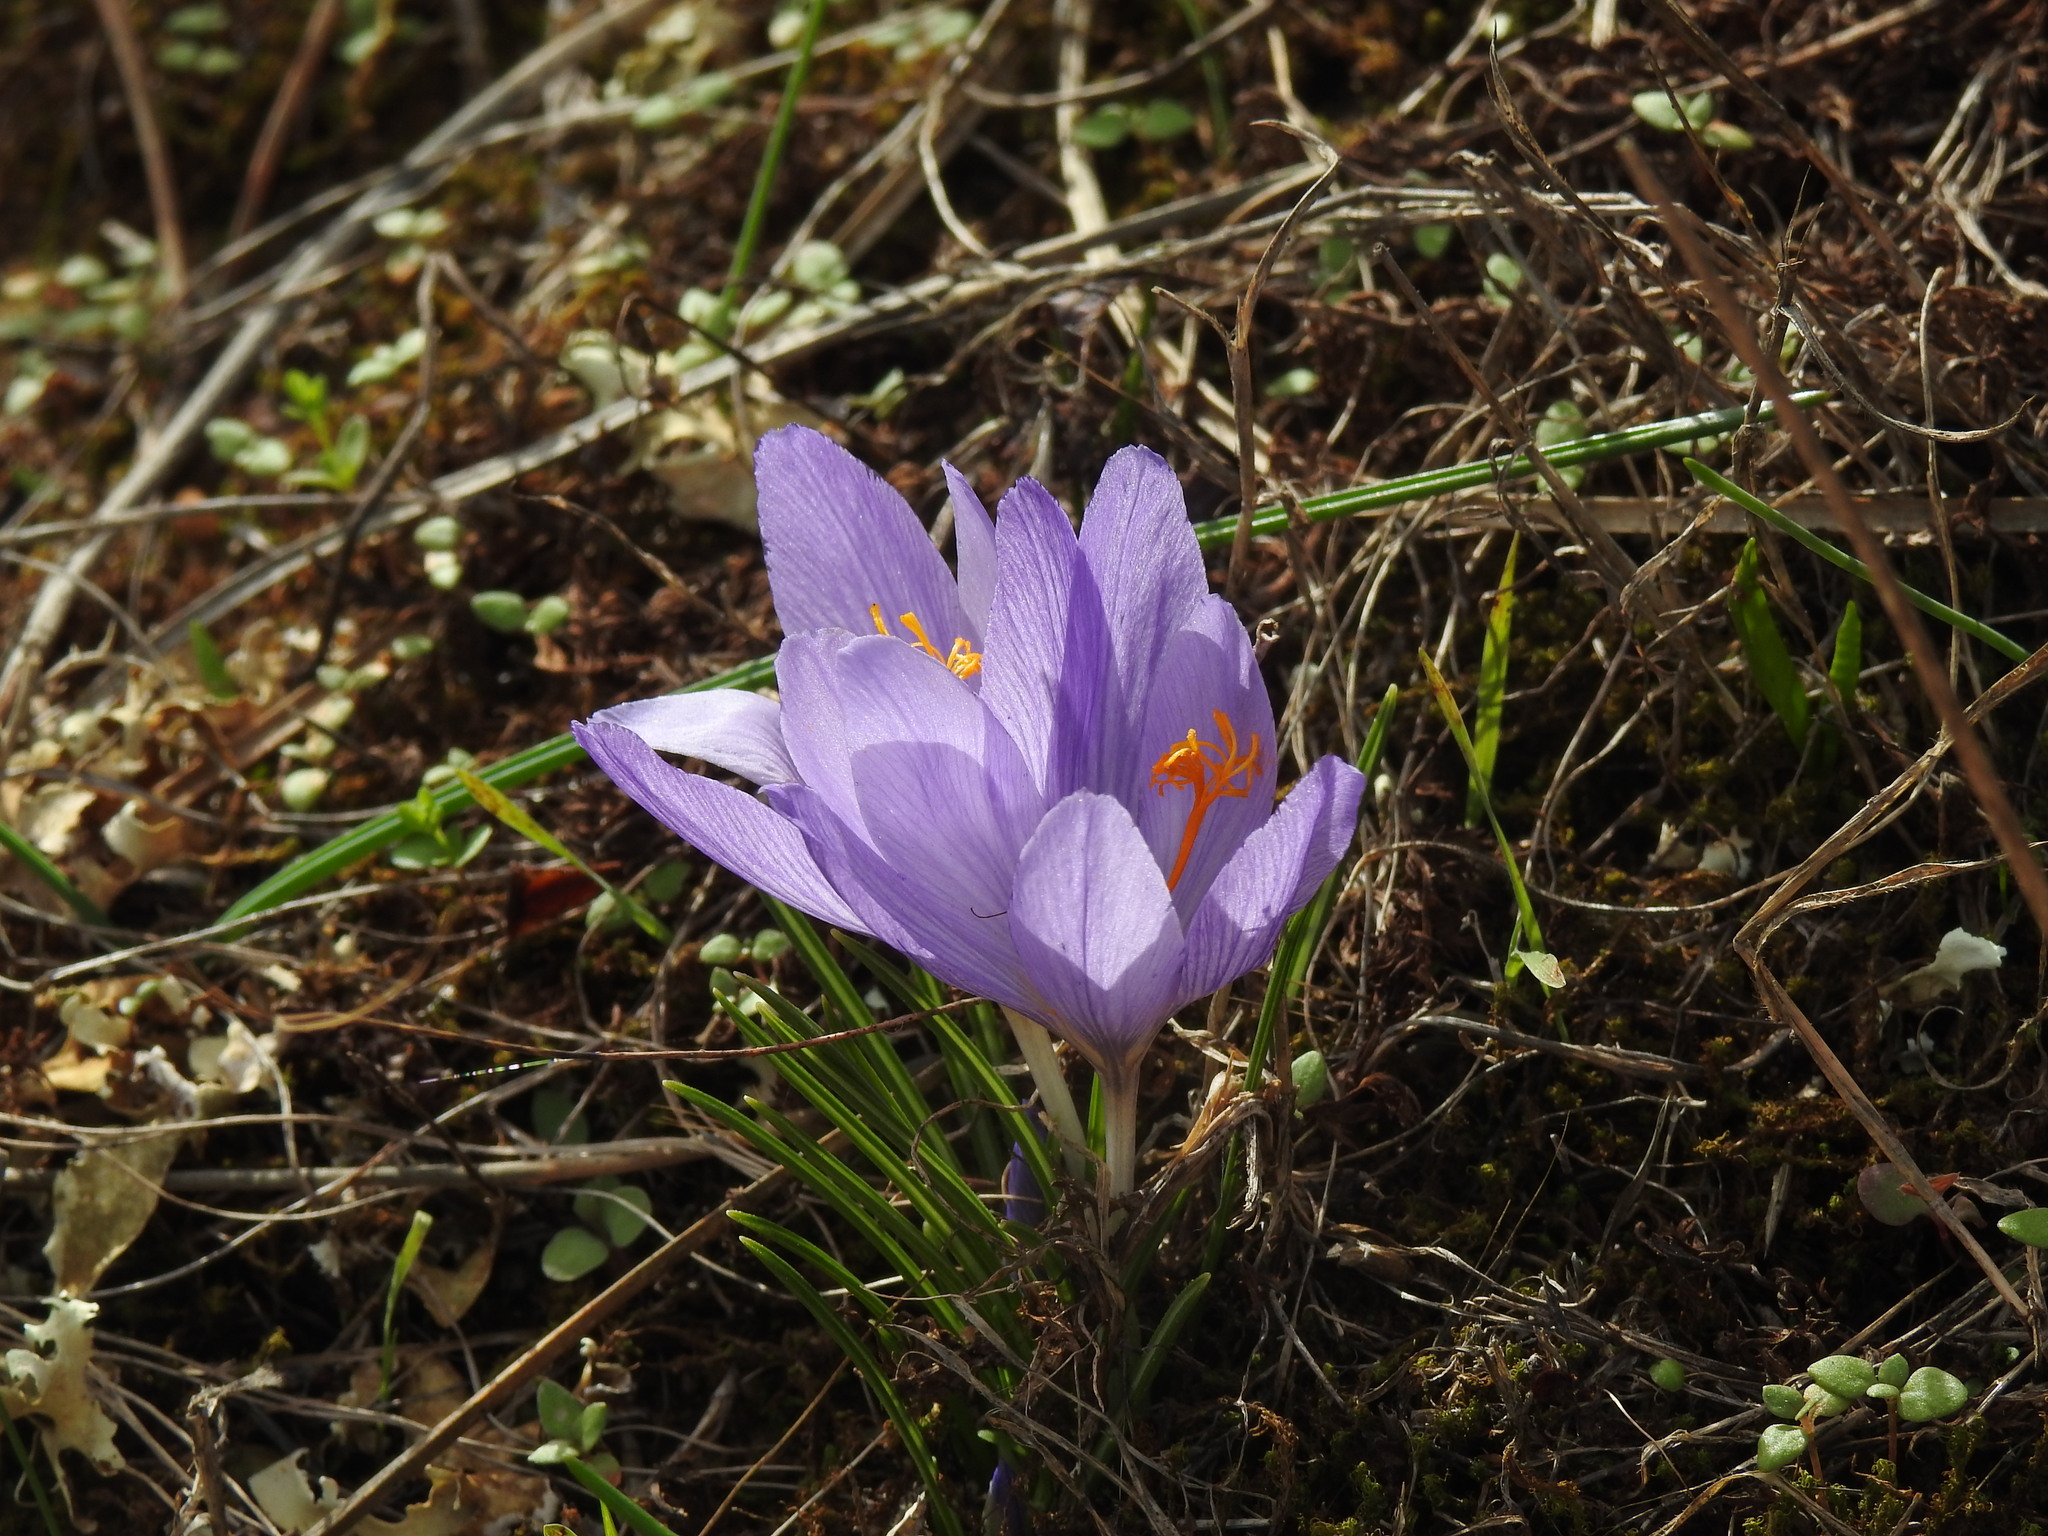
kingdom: Plantae
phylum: Tracheophyta
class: Liliopsida
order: Asparagales
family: Iridaceae
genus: Crocus
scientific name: Crocus serotinus
